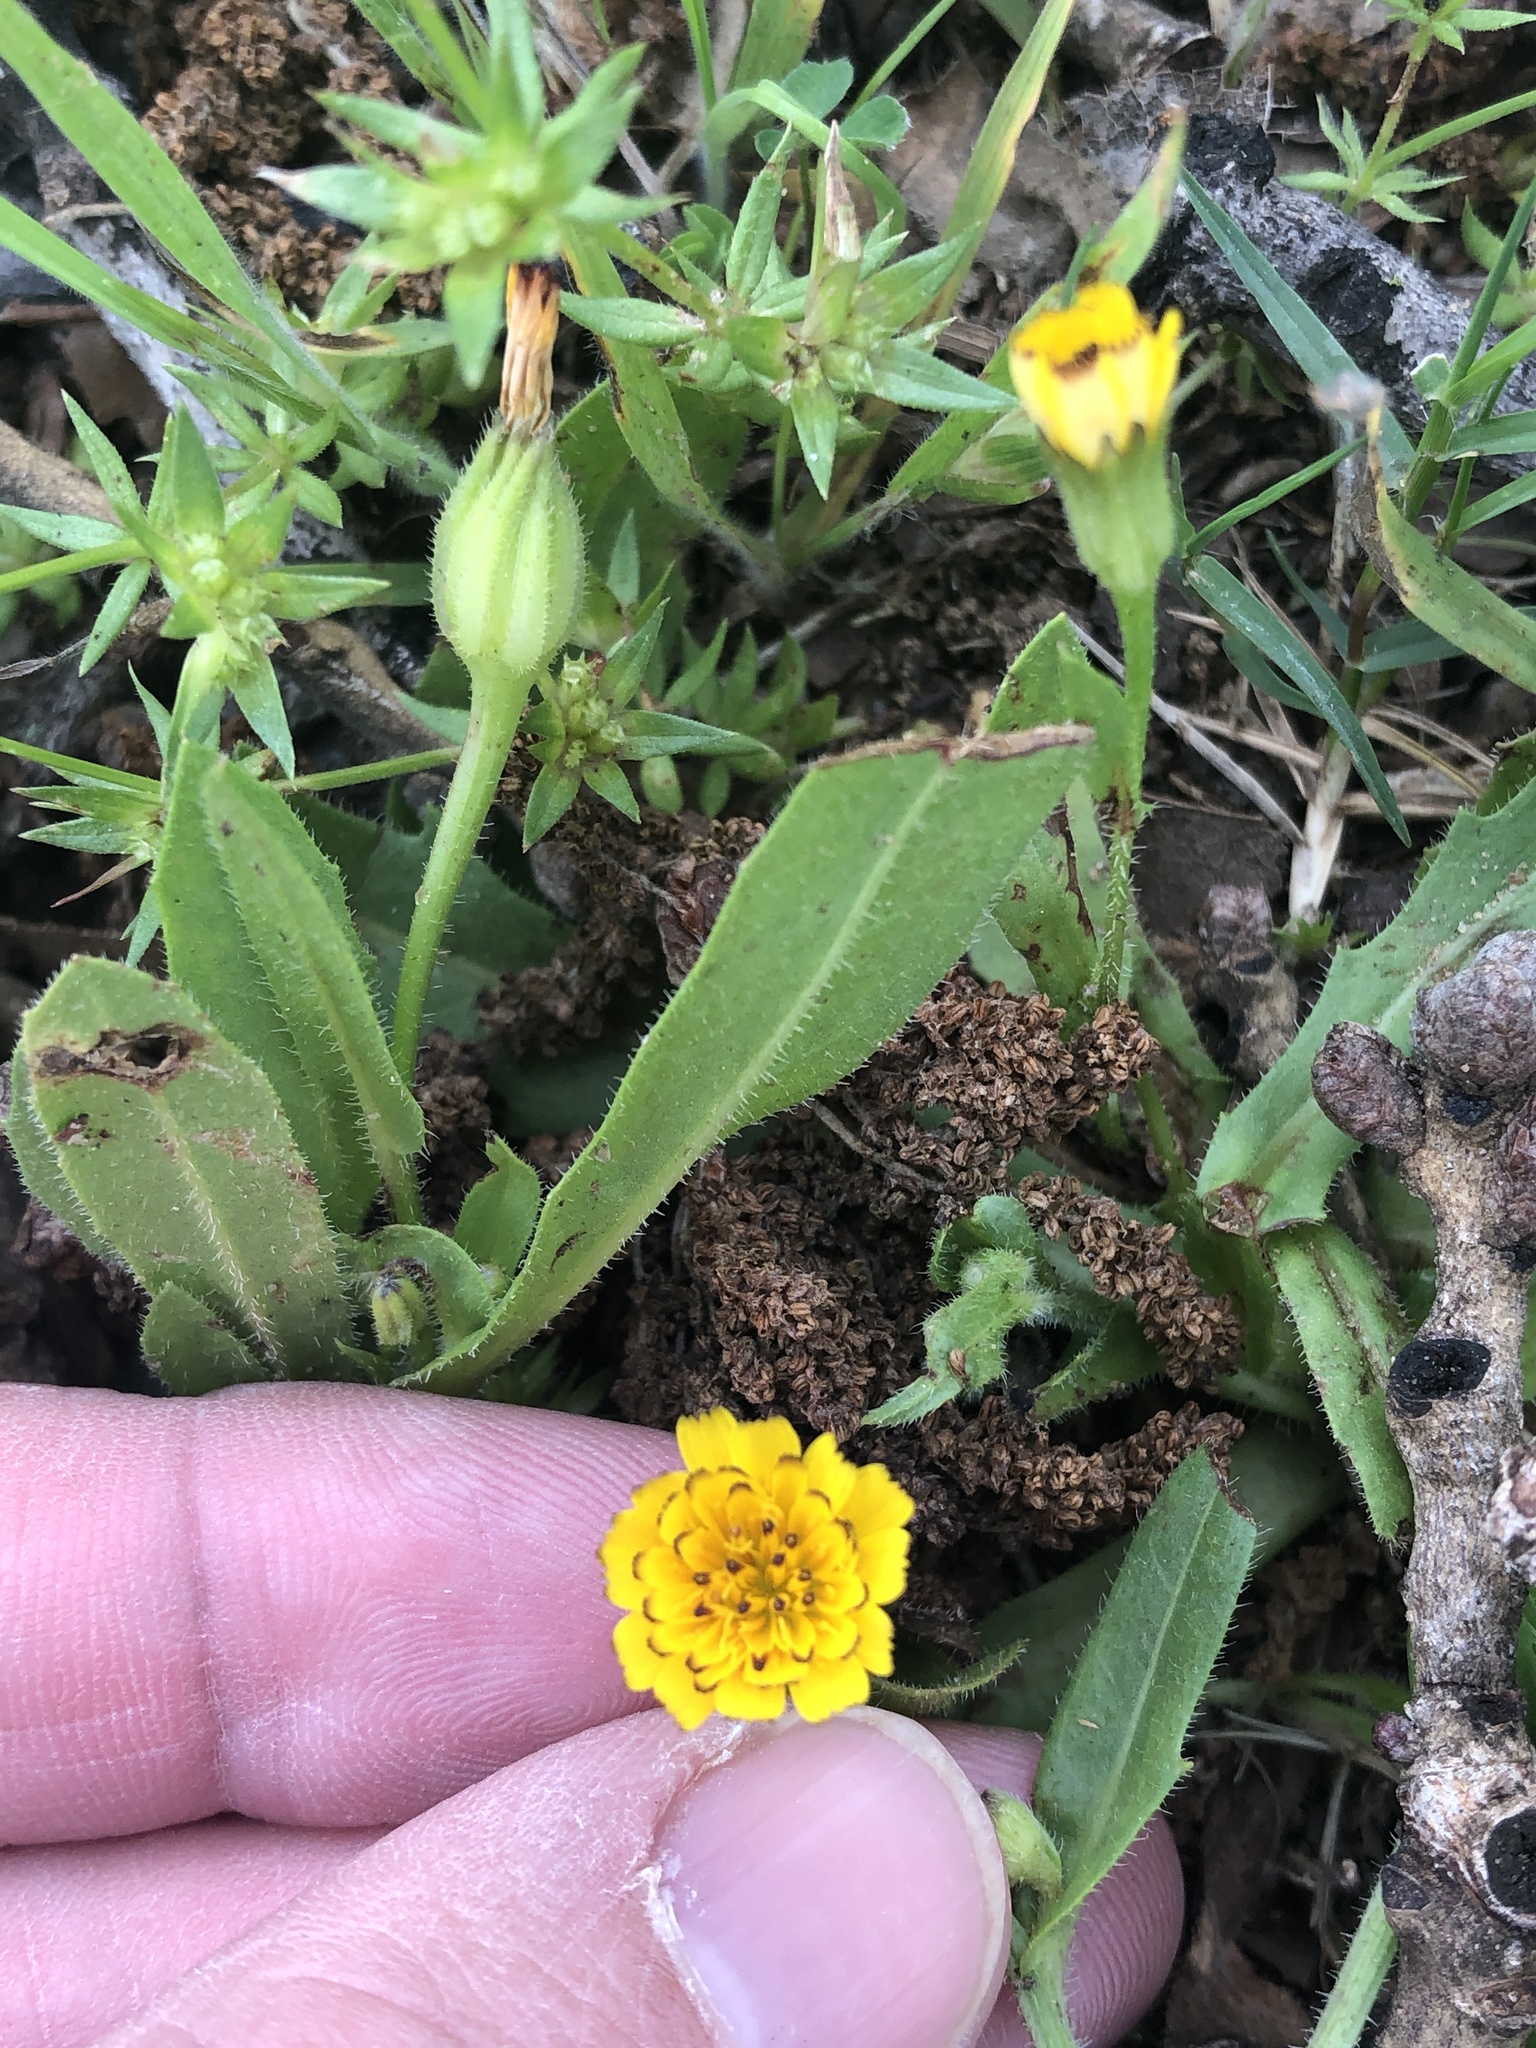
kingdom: Plantae
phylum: Tracheophyta
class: Magnoliopsida
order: Asterales
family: Asteraceae
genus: Hedypnois
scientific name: Hedypnois rhagadioloides
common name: Cretan weed
